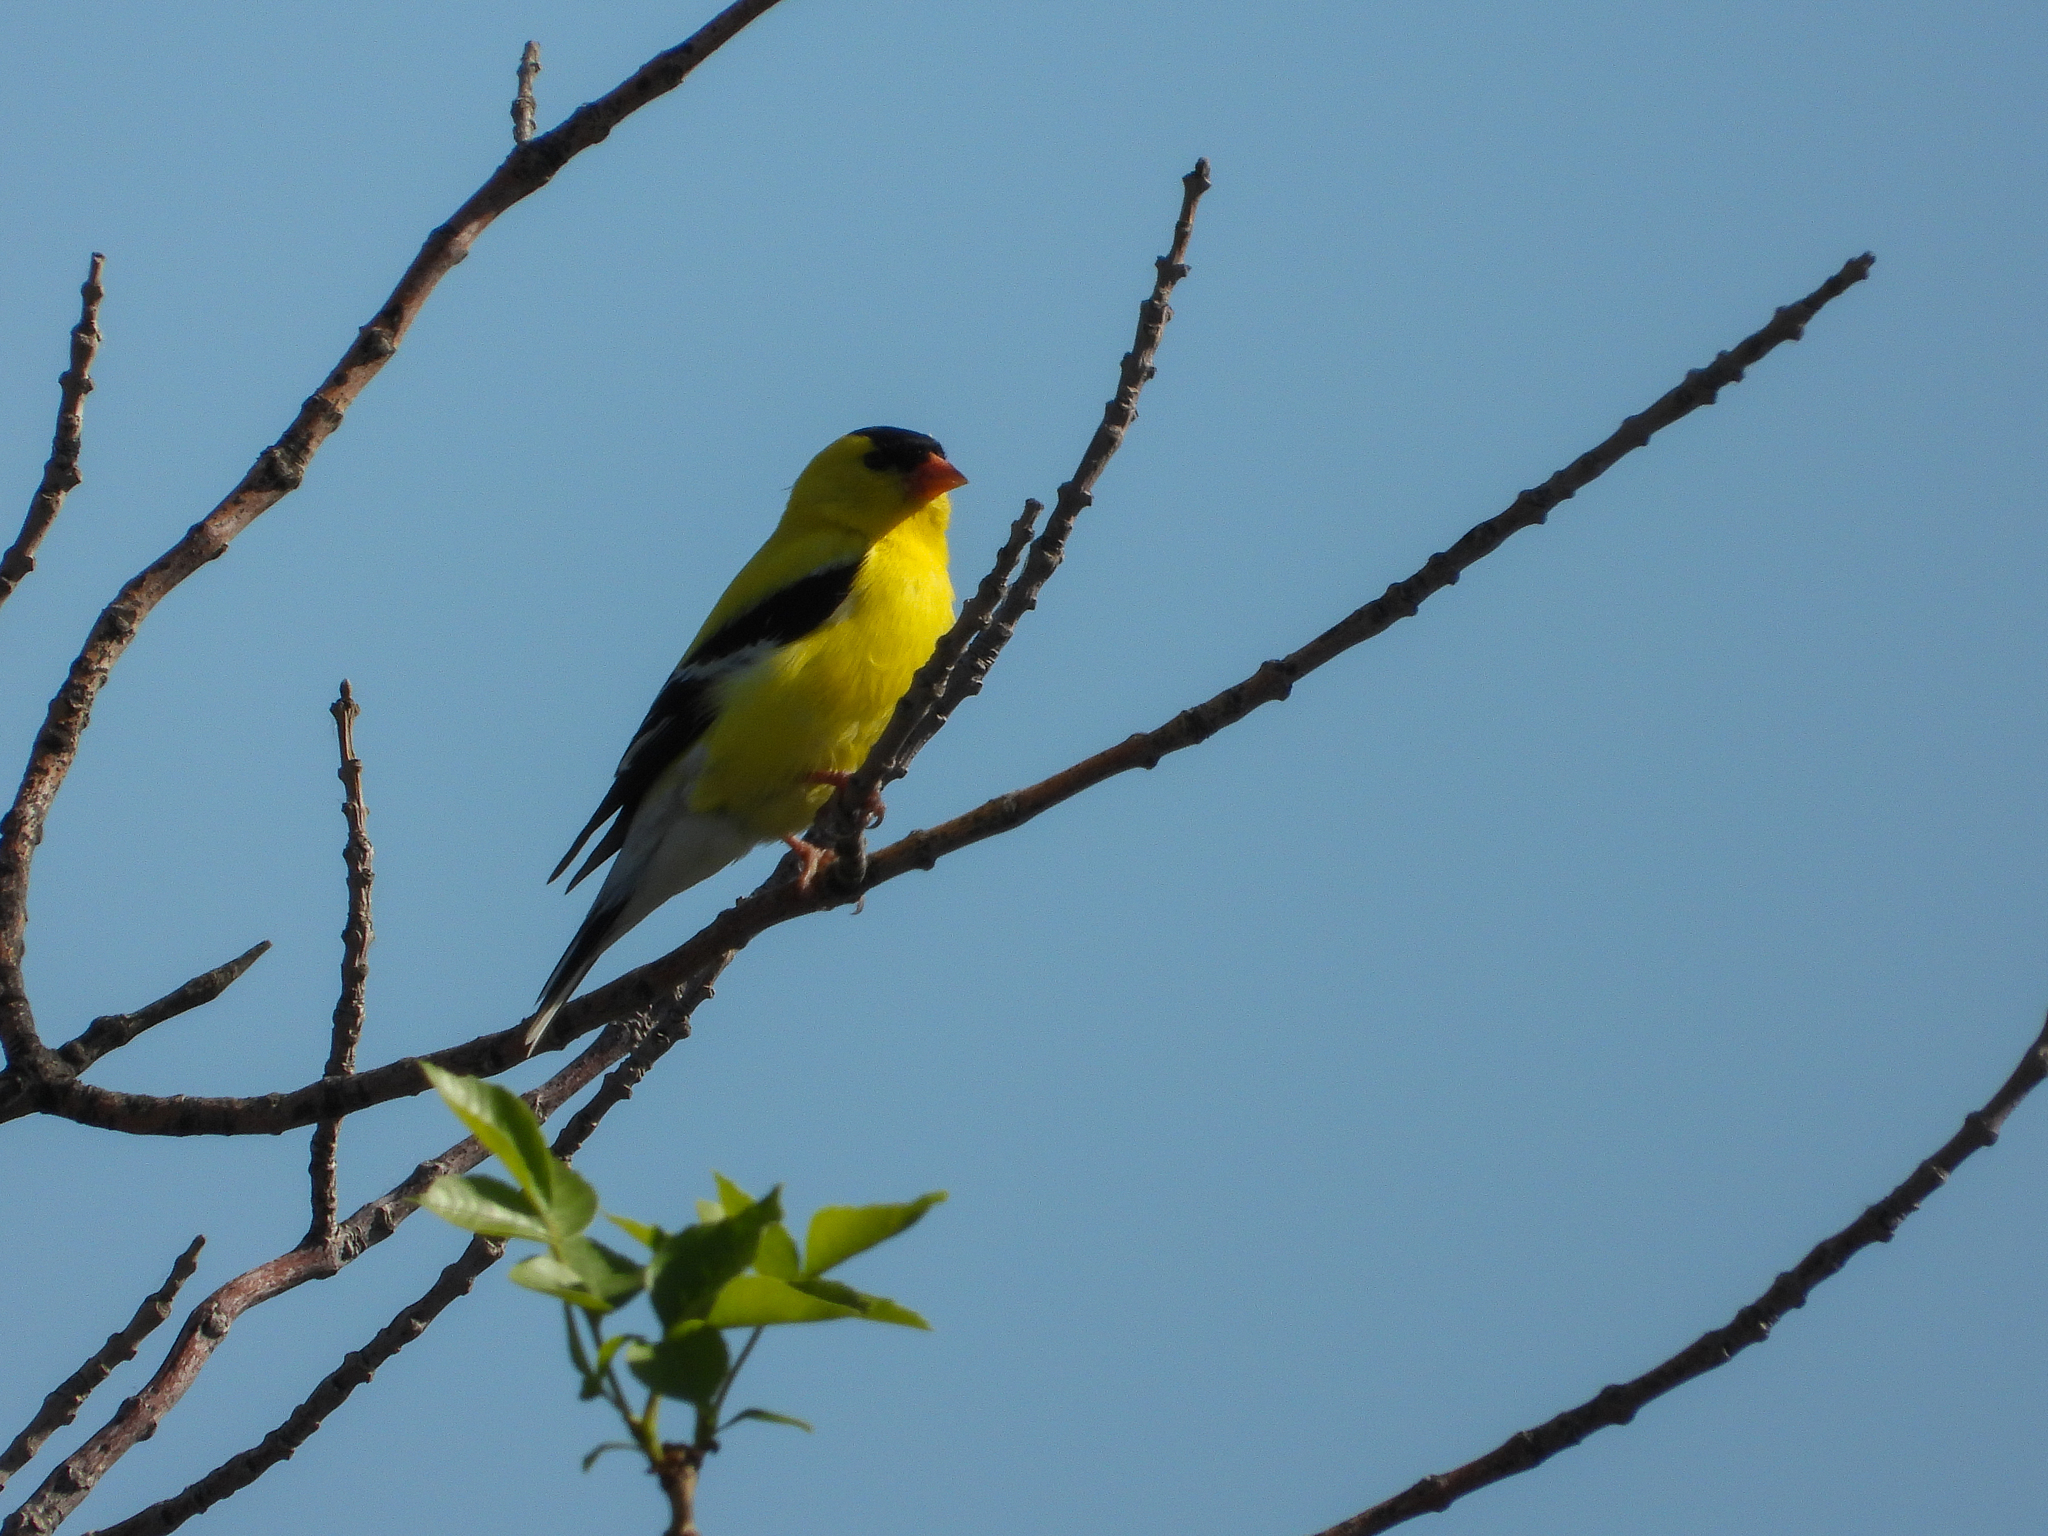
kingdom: Animalia
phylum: Chordata
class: Aves
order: Passeriformes
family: Fringillidae
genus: Spinus
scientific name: Spinus tristis
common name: American goldfinch
